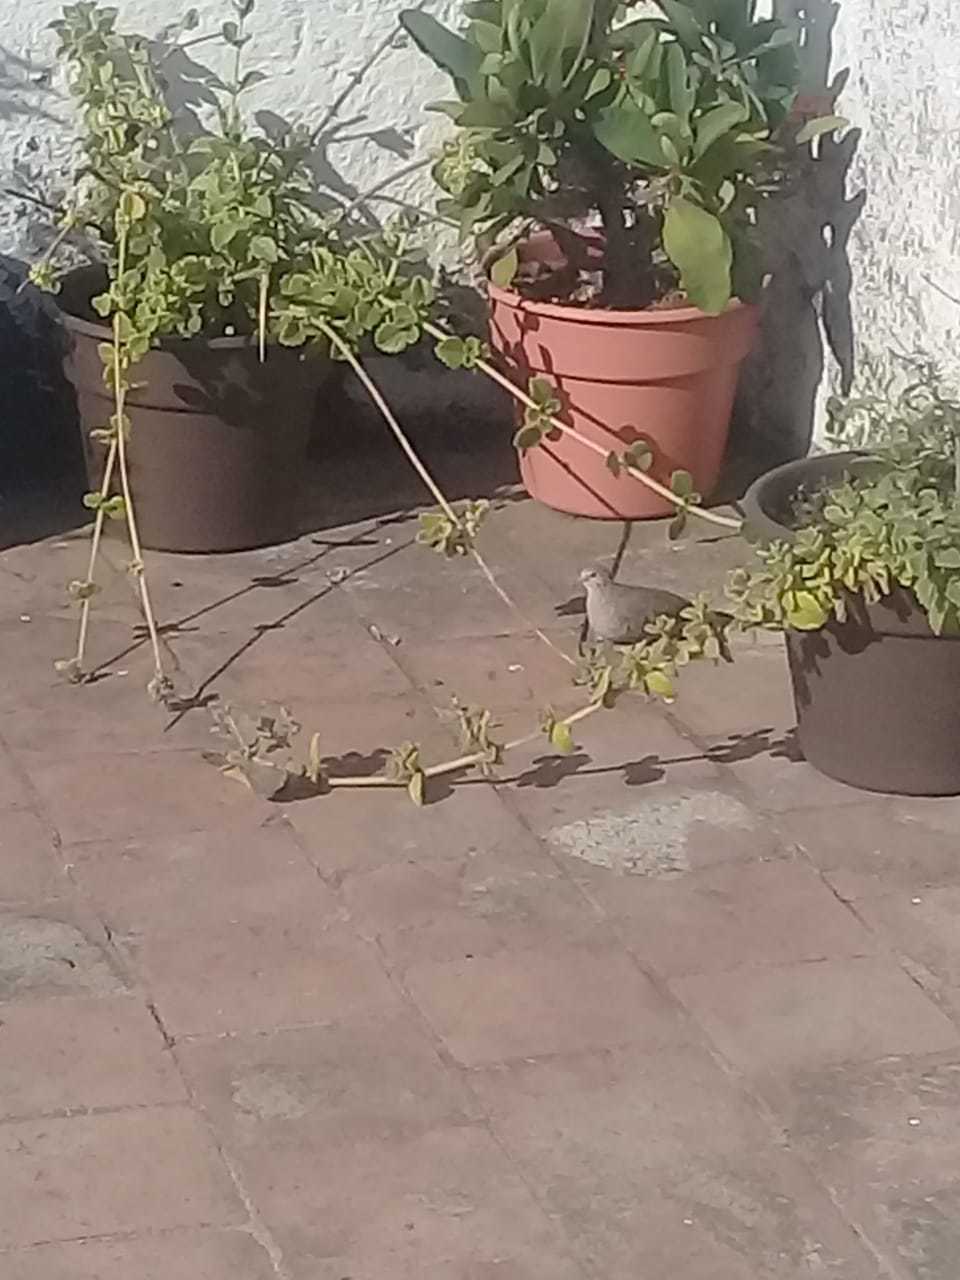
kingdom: Animalia
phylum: Chordata
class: Aves
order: Columbiformes
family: Columbidae
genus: Columbina
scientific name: Columbina inca
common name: Inca dove
